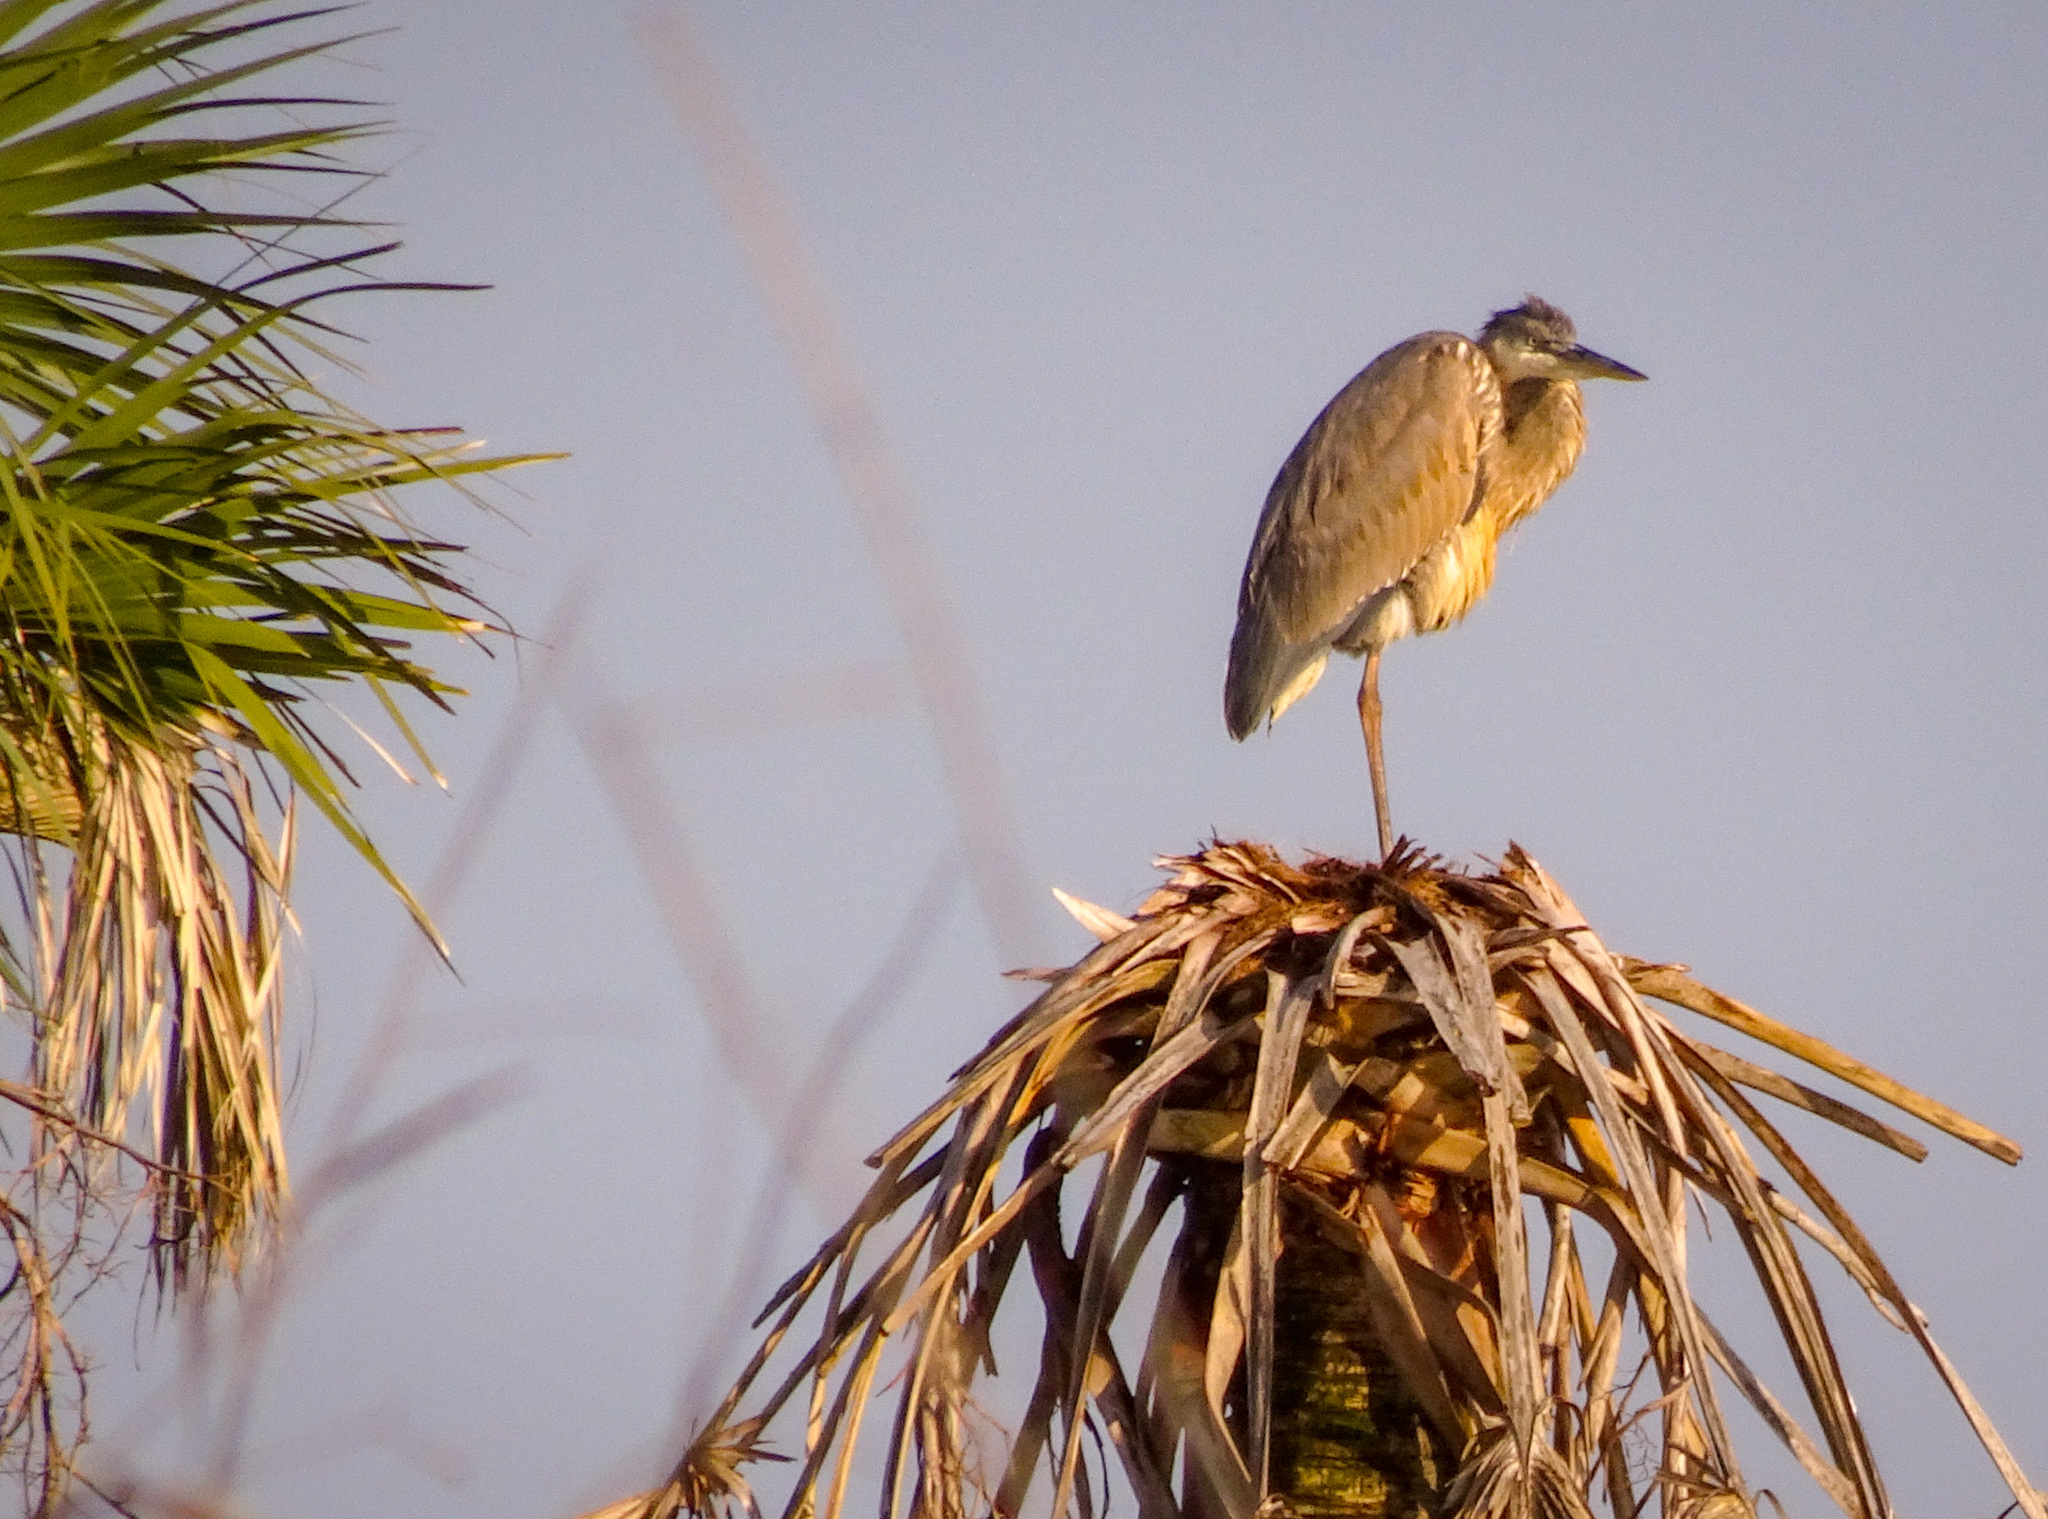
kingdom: Animalia
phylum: Chordata
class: Aves
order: Pelecaniformes
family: Ardeidae
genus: Ardea
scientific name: Ardea herodias
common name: Great blue heron
